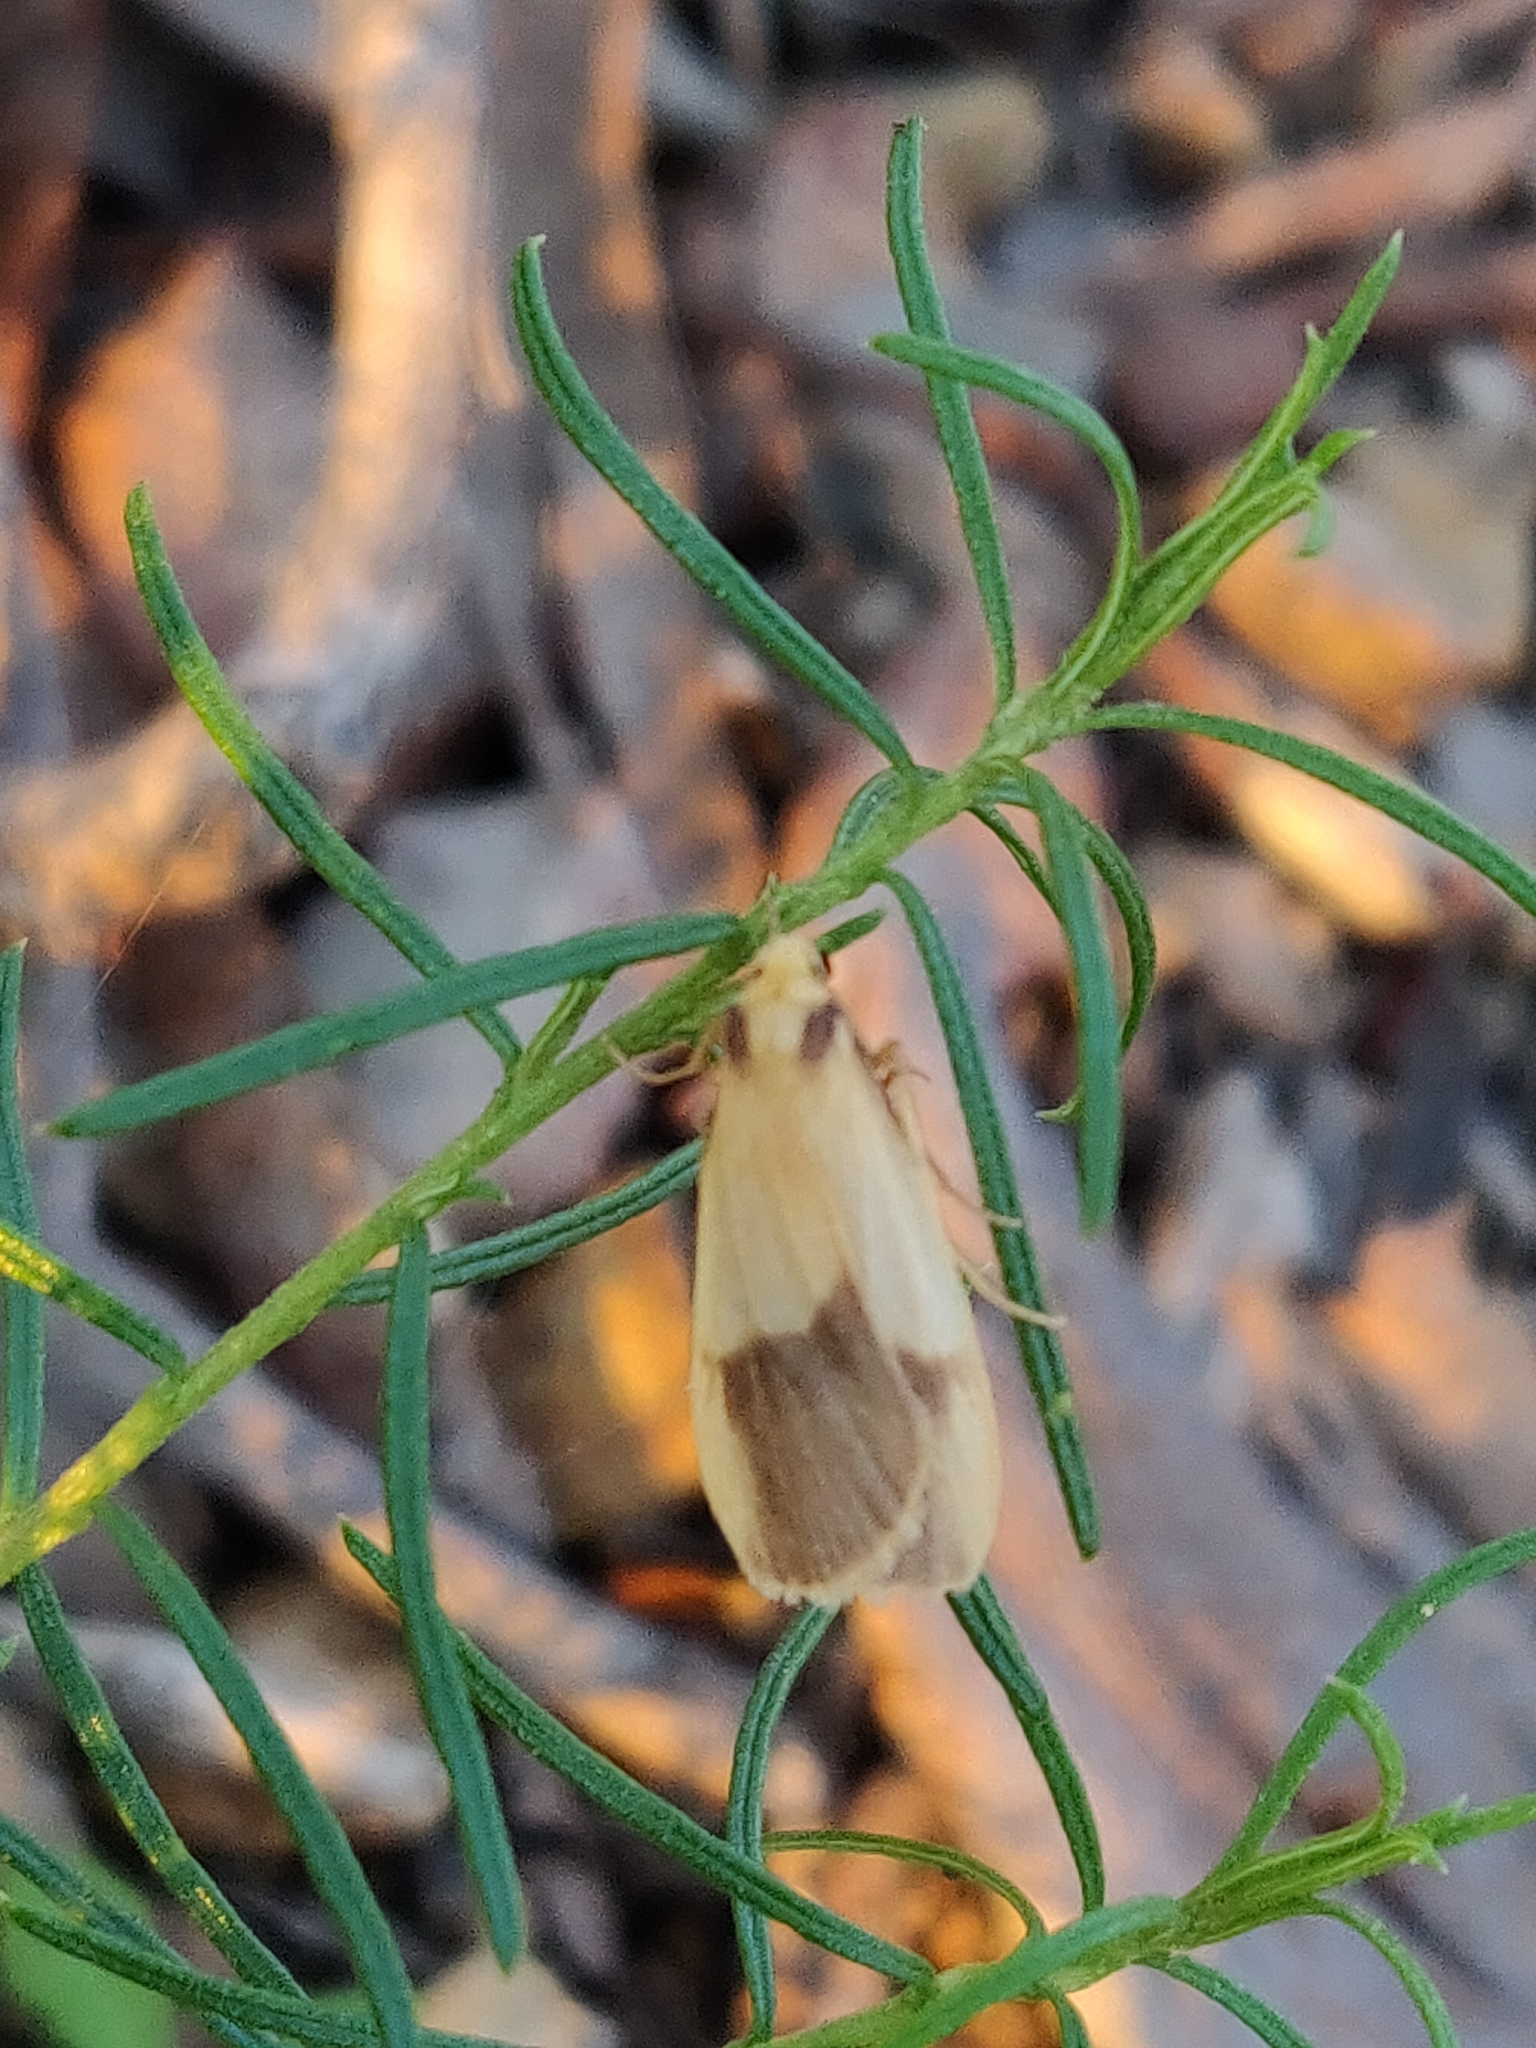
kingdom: Animalia
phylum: Arthropoda
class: Insecta
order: Lepidoptera
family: Erebidae
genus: Threnosia
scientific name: Threnosia heminephes
